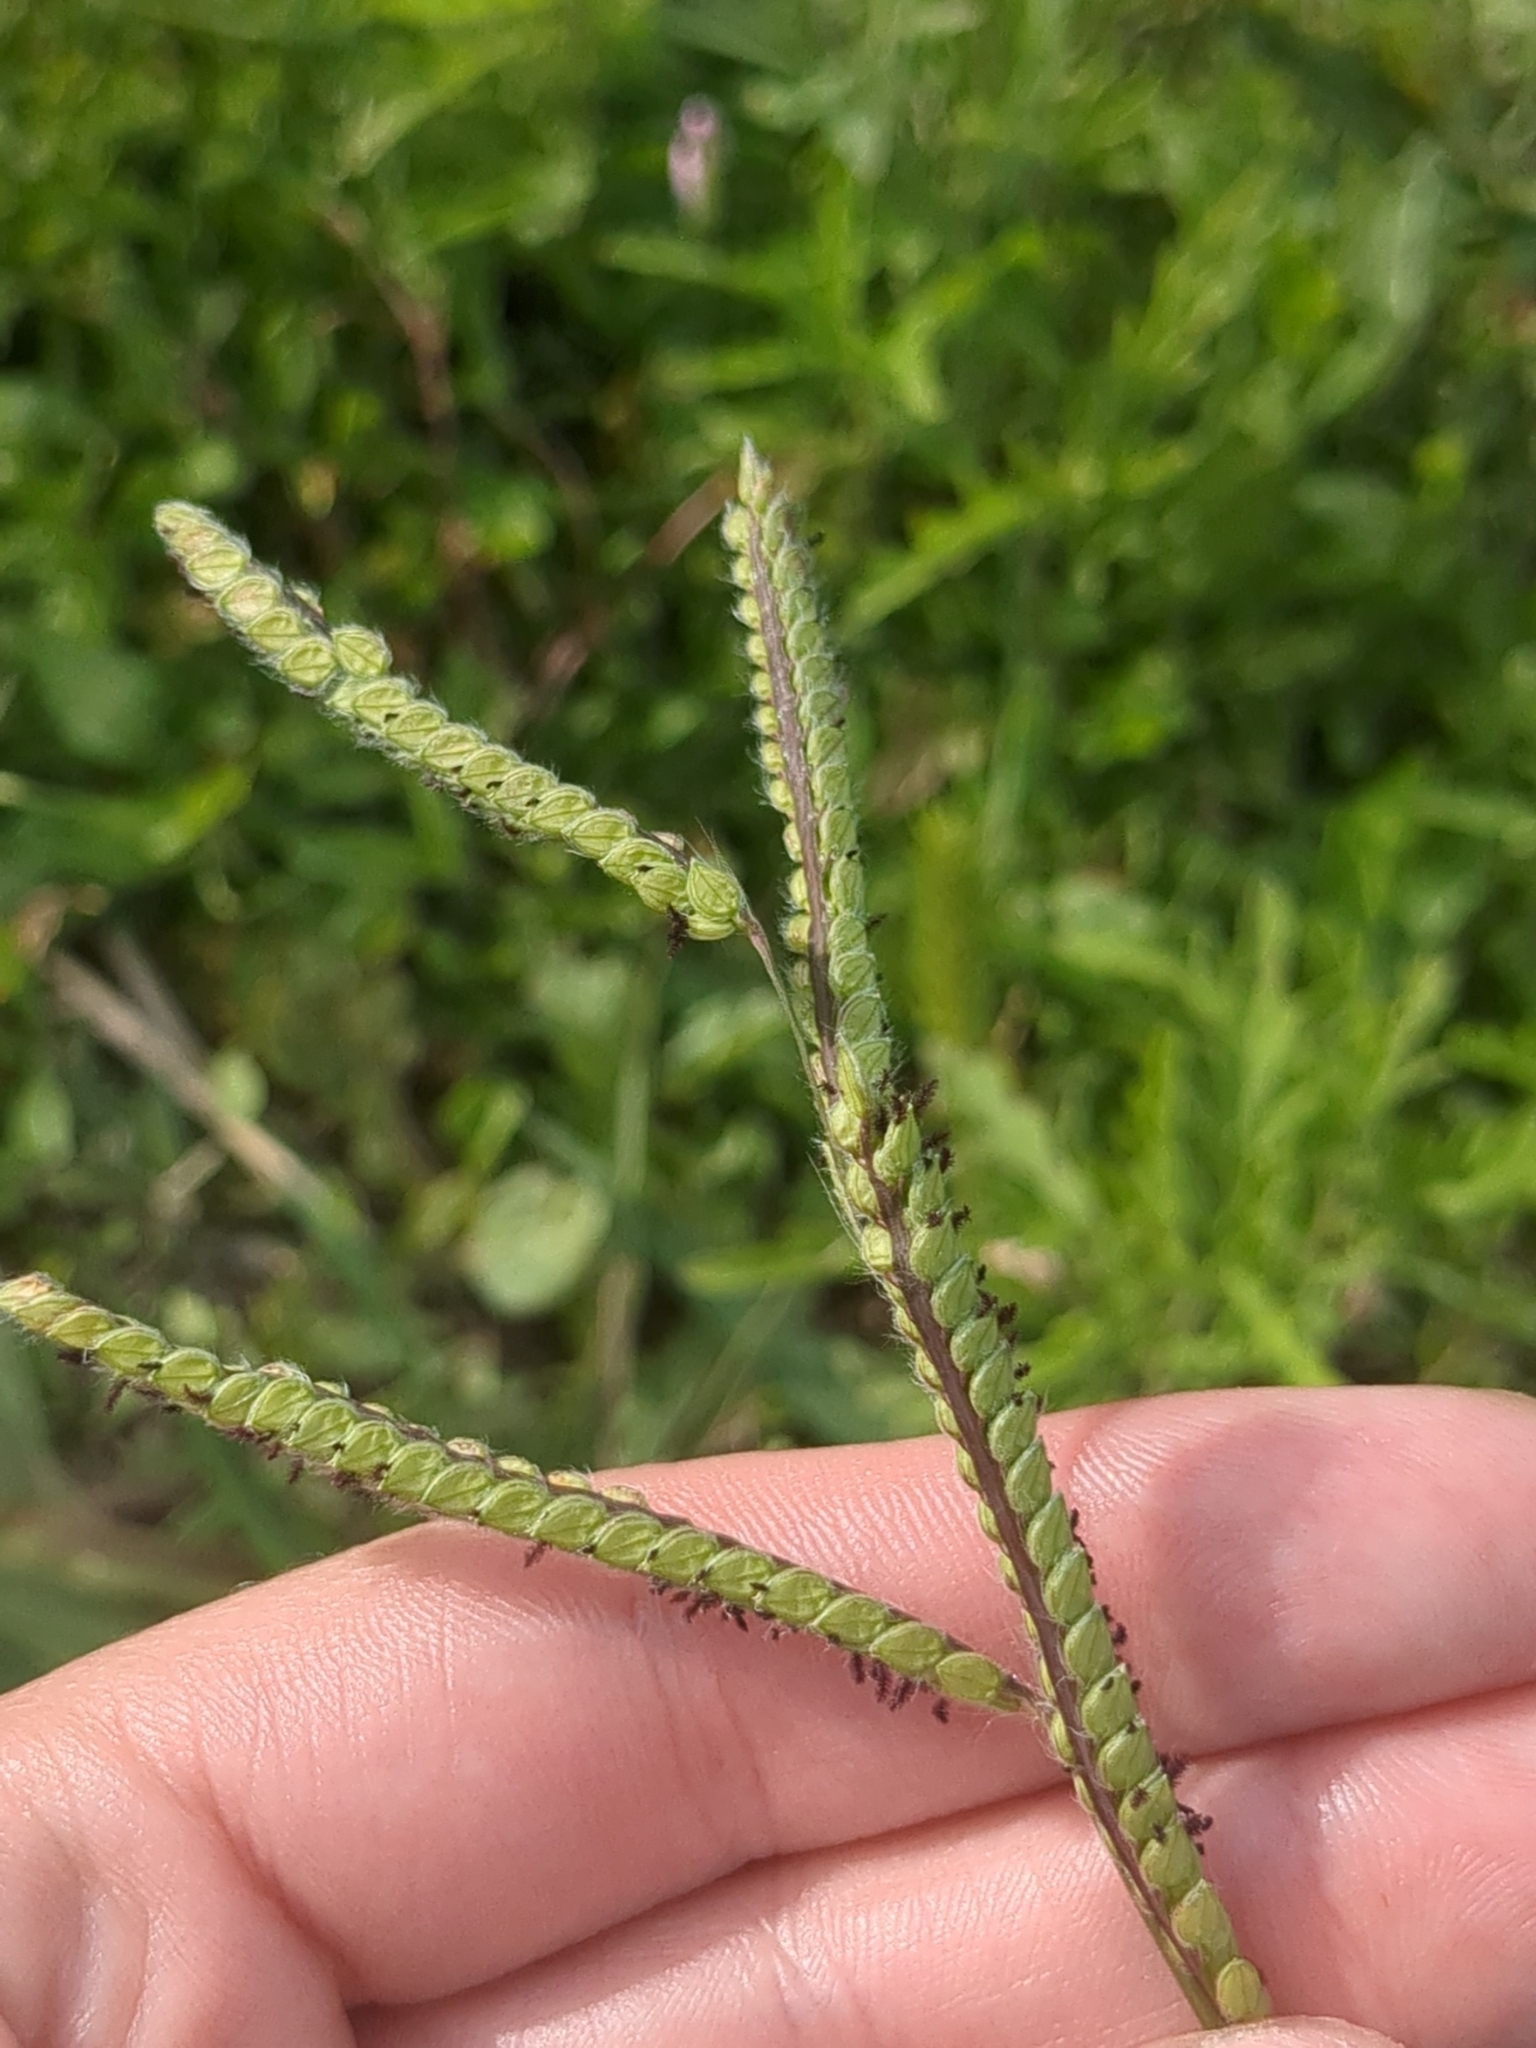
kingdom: Plantae
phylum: Tracheophyta
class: Liliopsida
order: Poales
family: Poaceae
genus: Paspalum
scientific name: Paspalum dilatatum
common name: Dallisgrass
